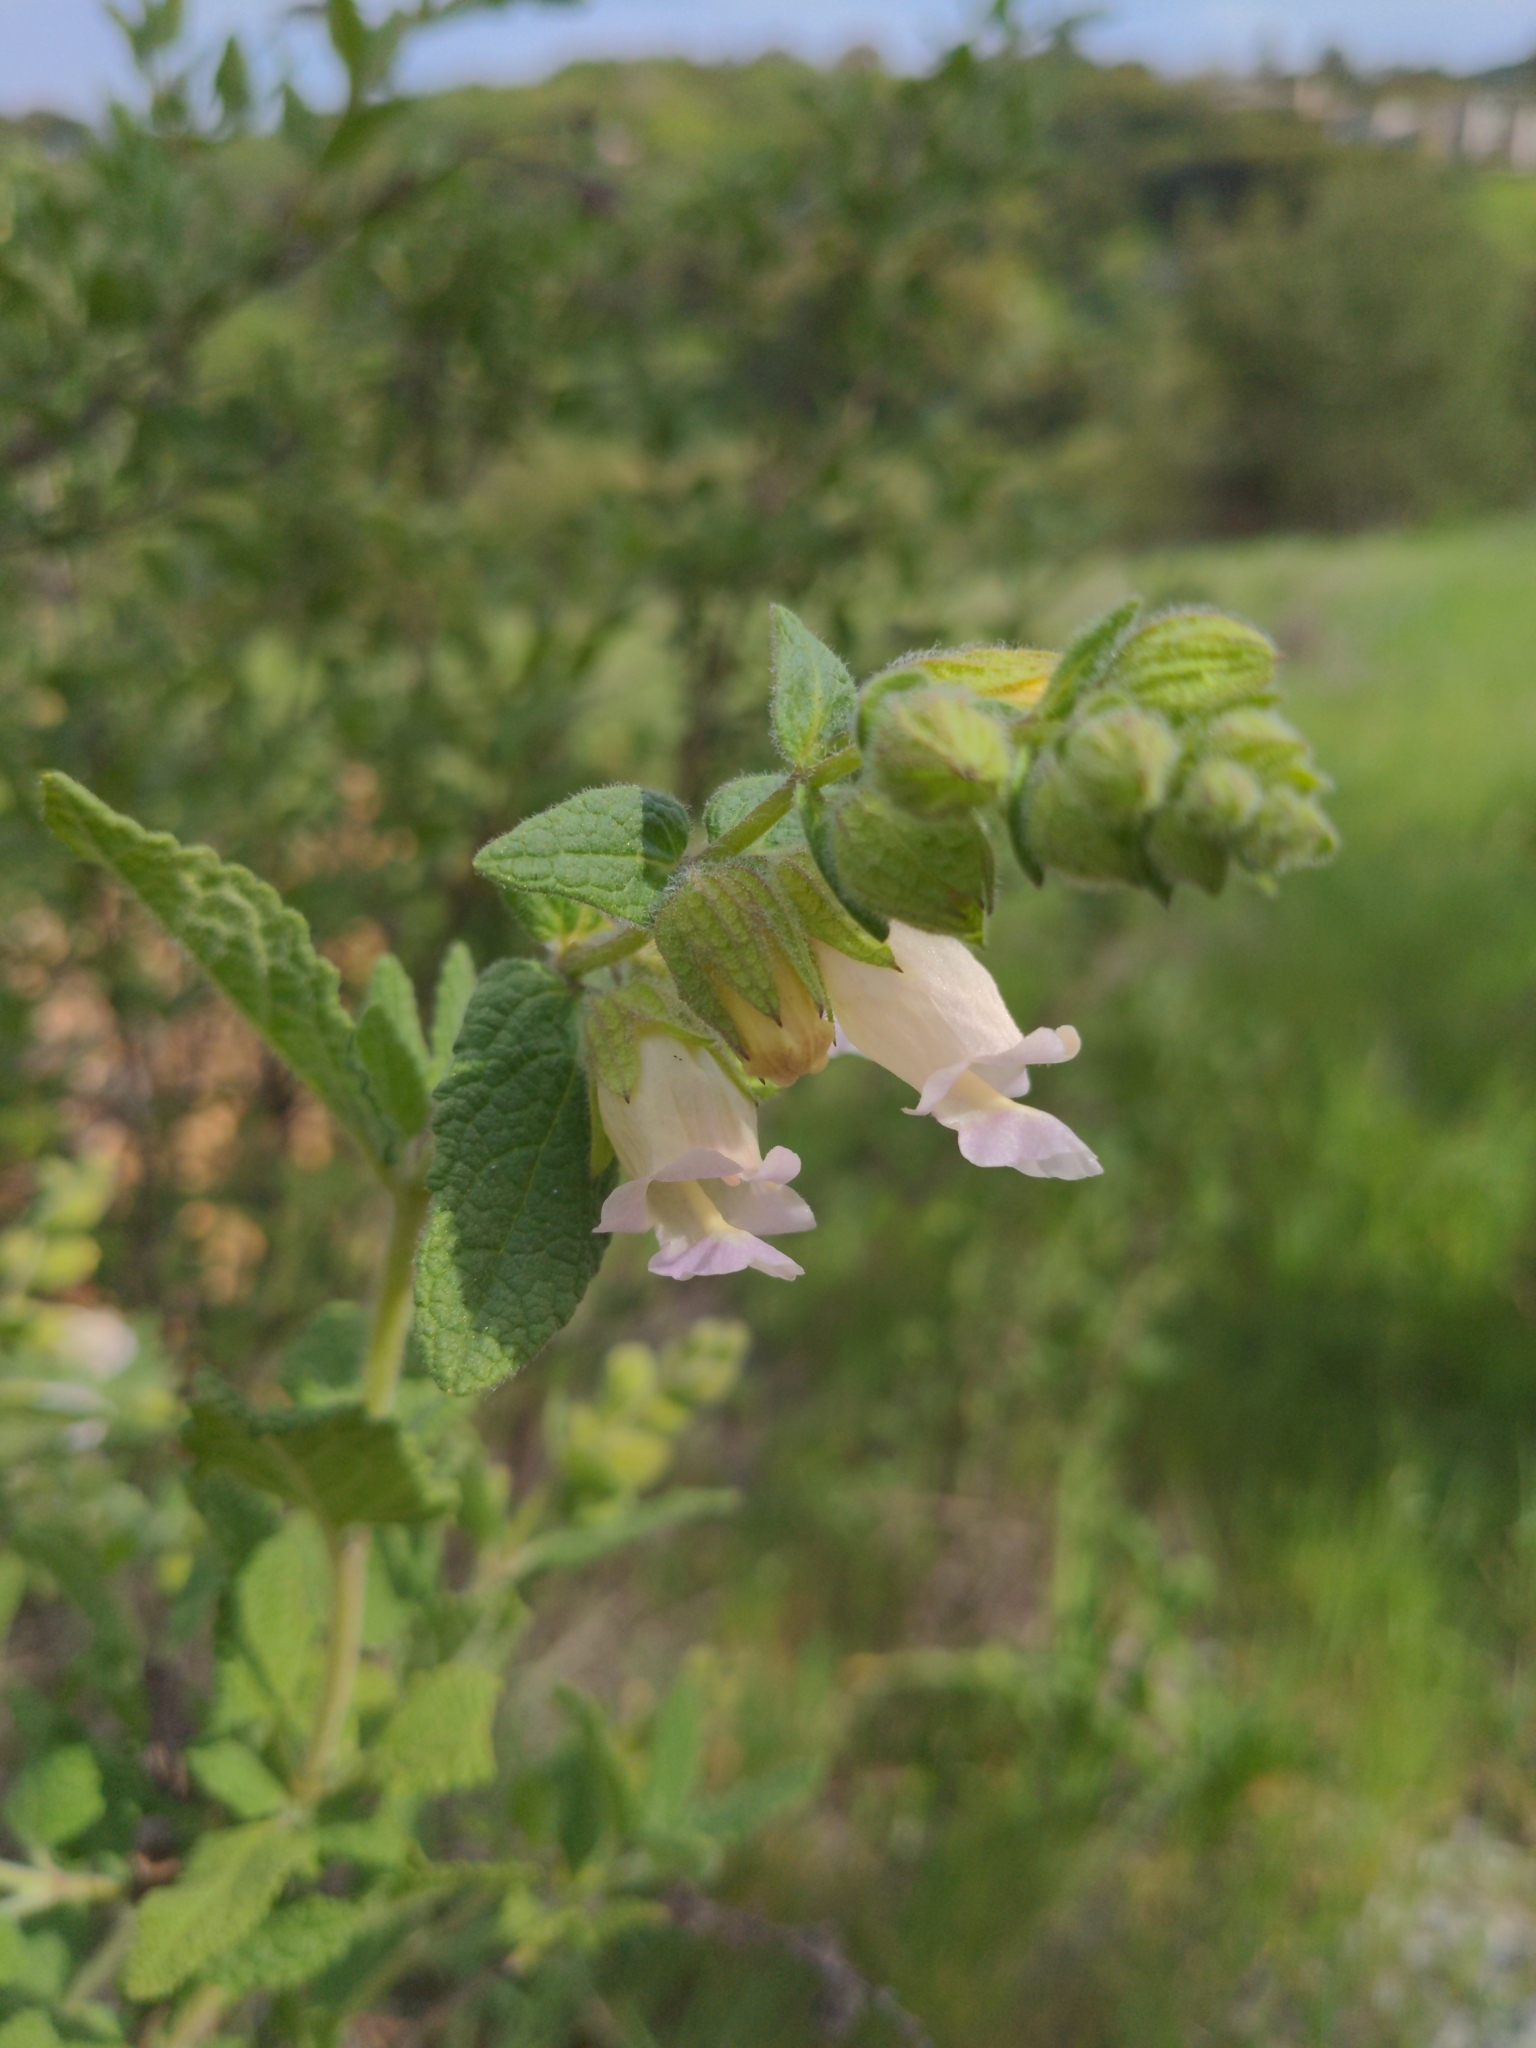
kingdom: Plantae
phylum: Tracheophyta
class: Magnoliopsida
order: Lamiales
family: Lamiaceae
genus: Lepechinia
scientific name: Lepechinia calycina
